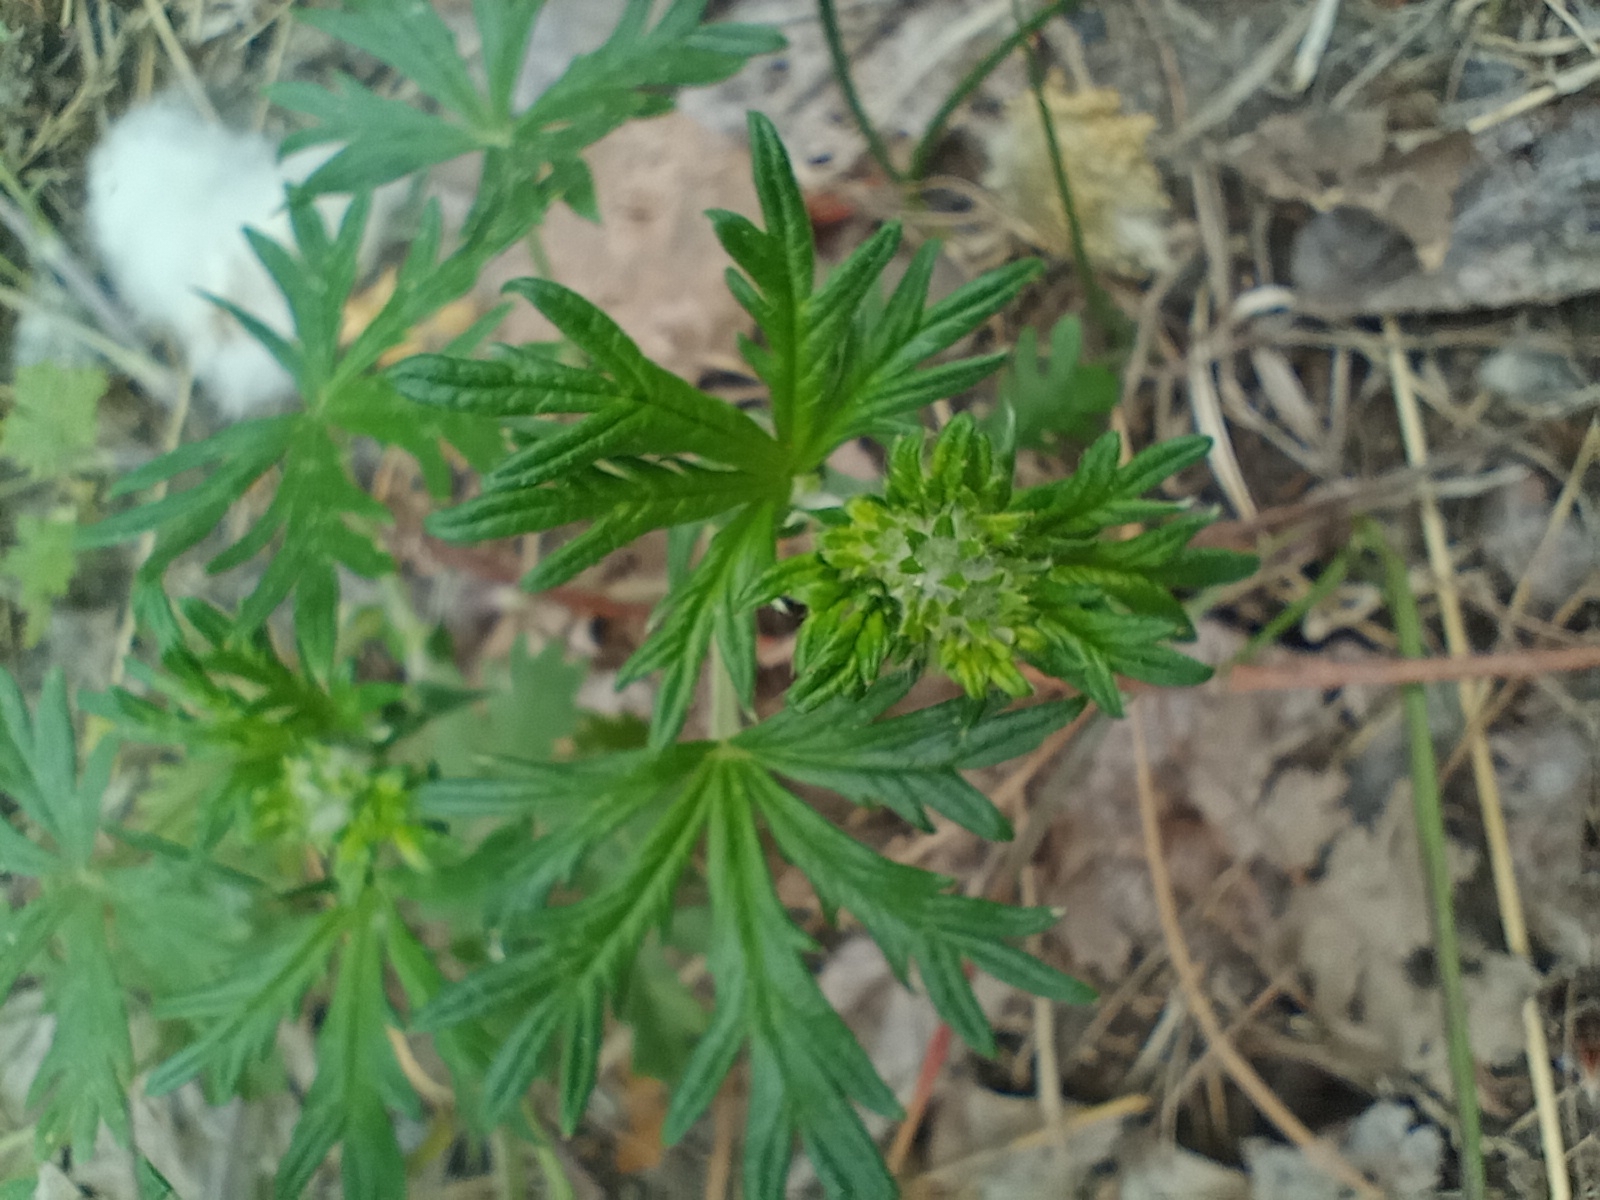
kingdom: Plantae
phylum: Tracheophyta
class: Magnoliopsida
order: Rosales
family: Rosaceae
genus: Potentilla
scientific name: Potentilla argentea
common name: Hoary cinquefoil
